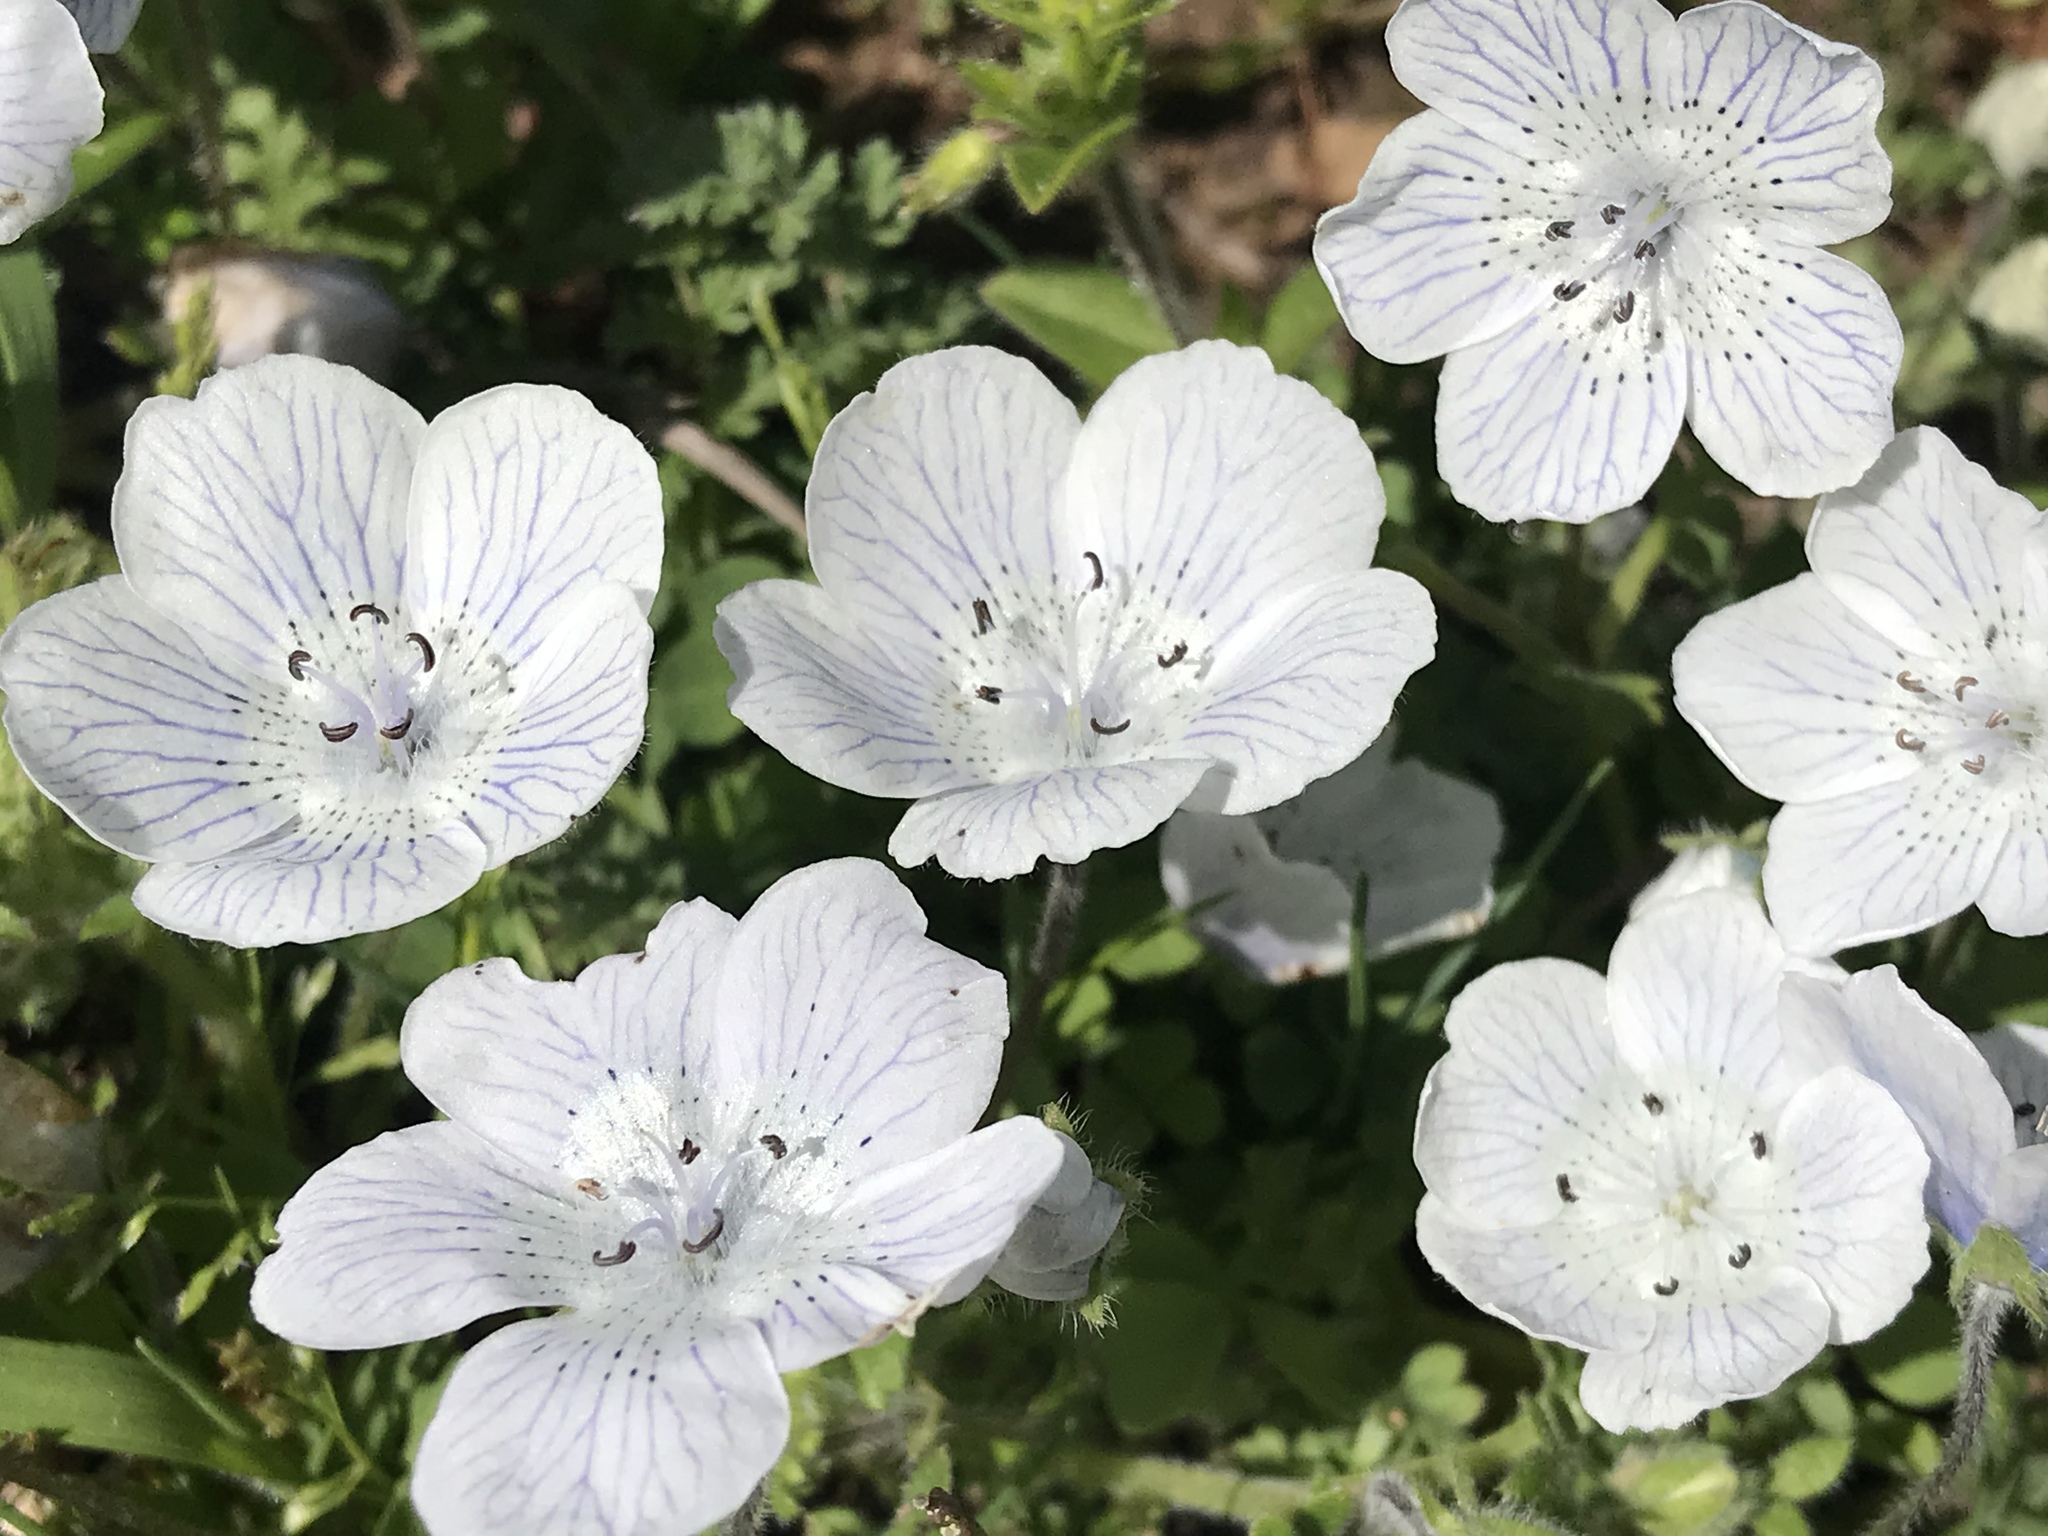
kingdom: Plantae
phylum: Tracheophyta
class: Magnoliopsida
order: Boraginales
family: Hydrophyllaceae
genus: Nemophila
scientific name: Nemophila menziesii
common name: Baby's-blue-eyes
